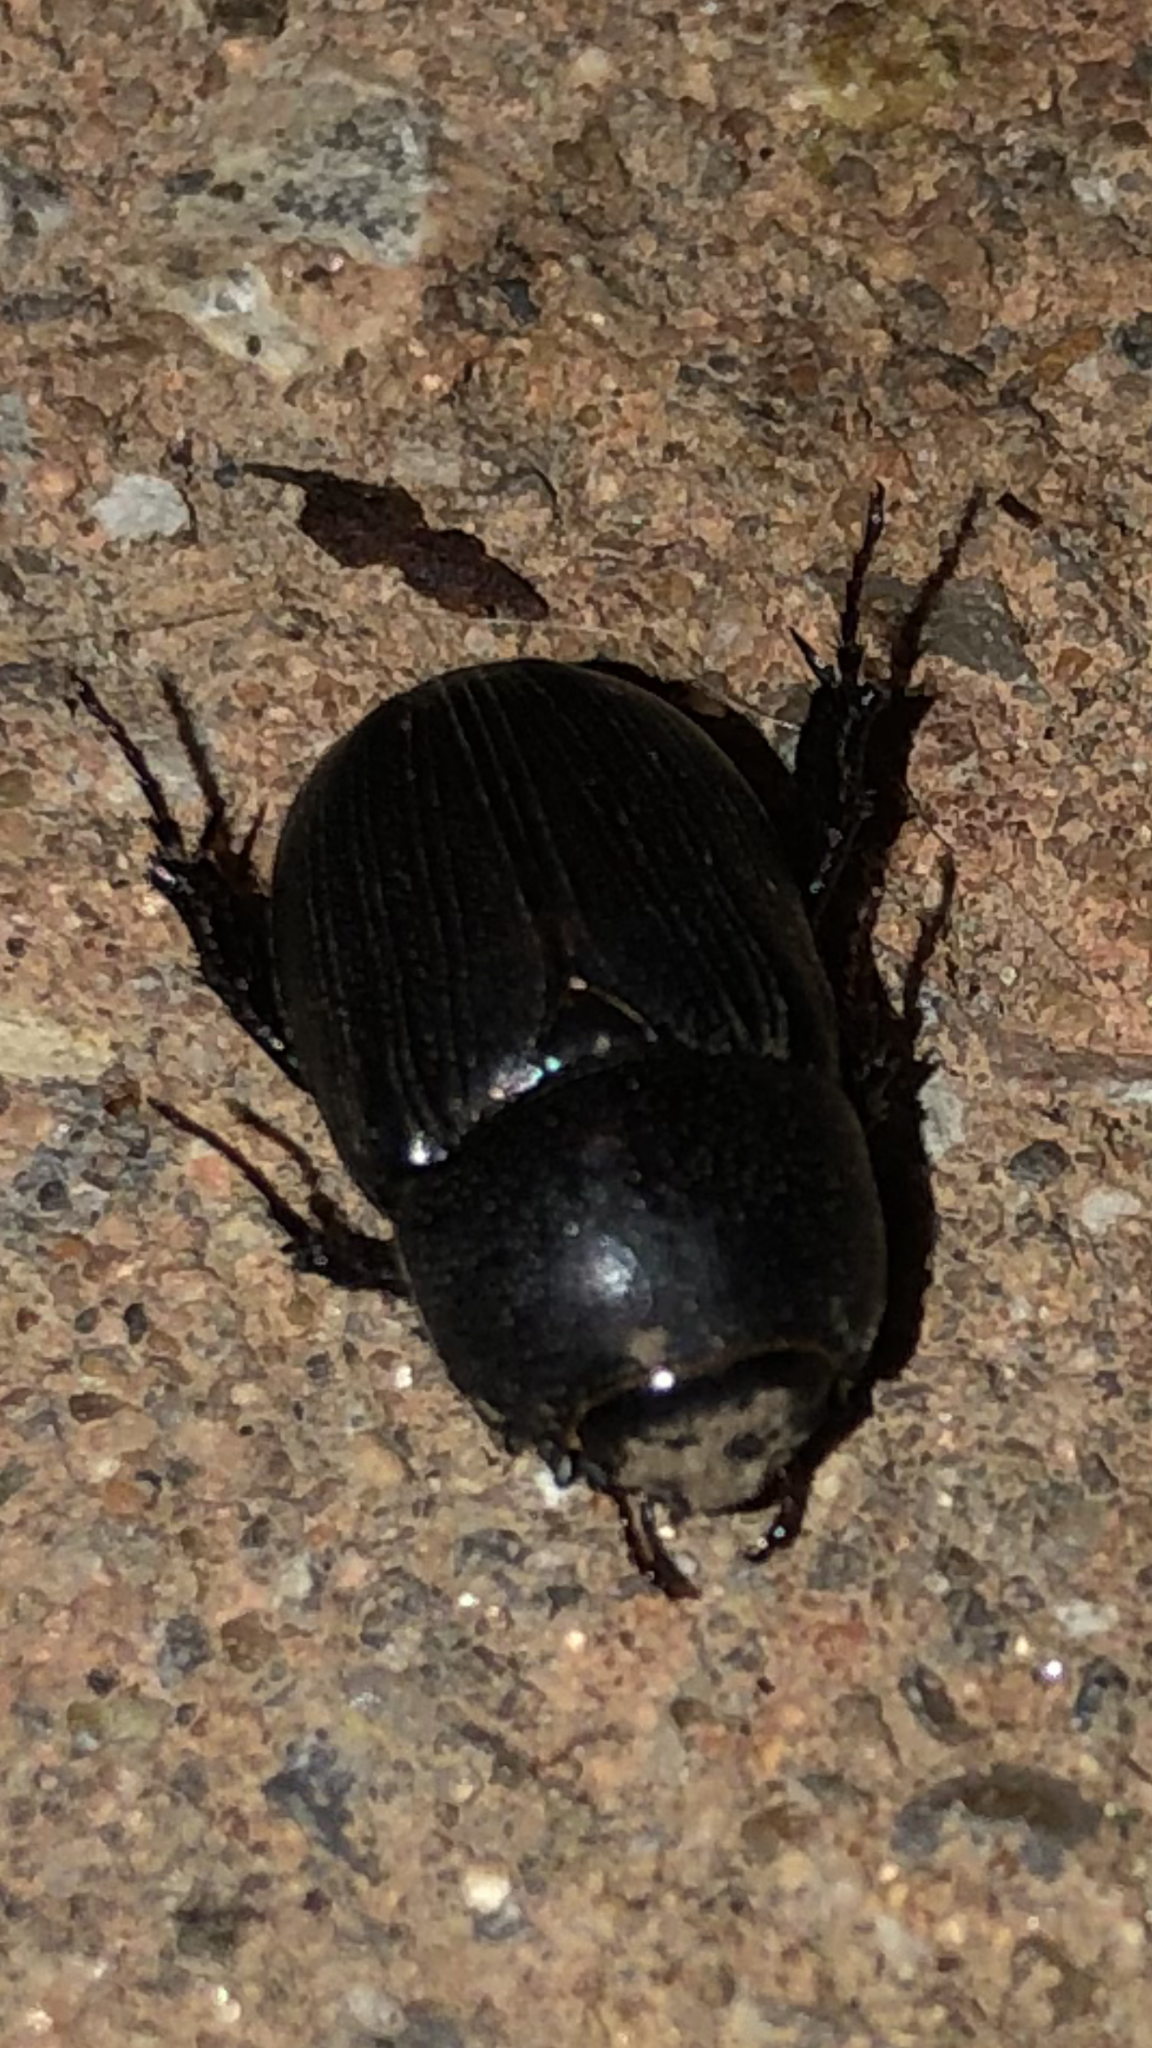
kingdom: Animalia
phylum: Arthropoda
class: Insecta
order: Coleoptera
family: Scarabaeidae
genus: Euetheola
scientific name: Euetheola humilis
